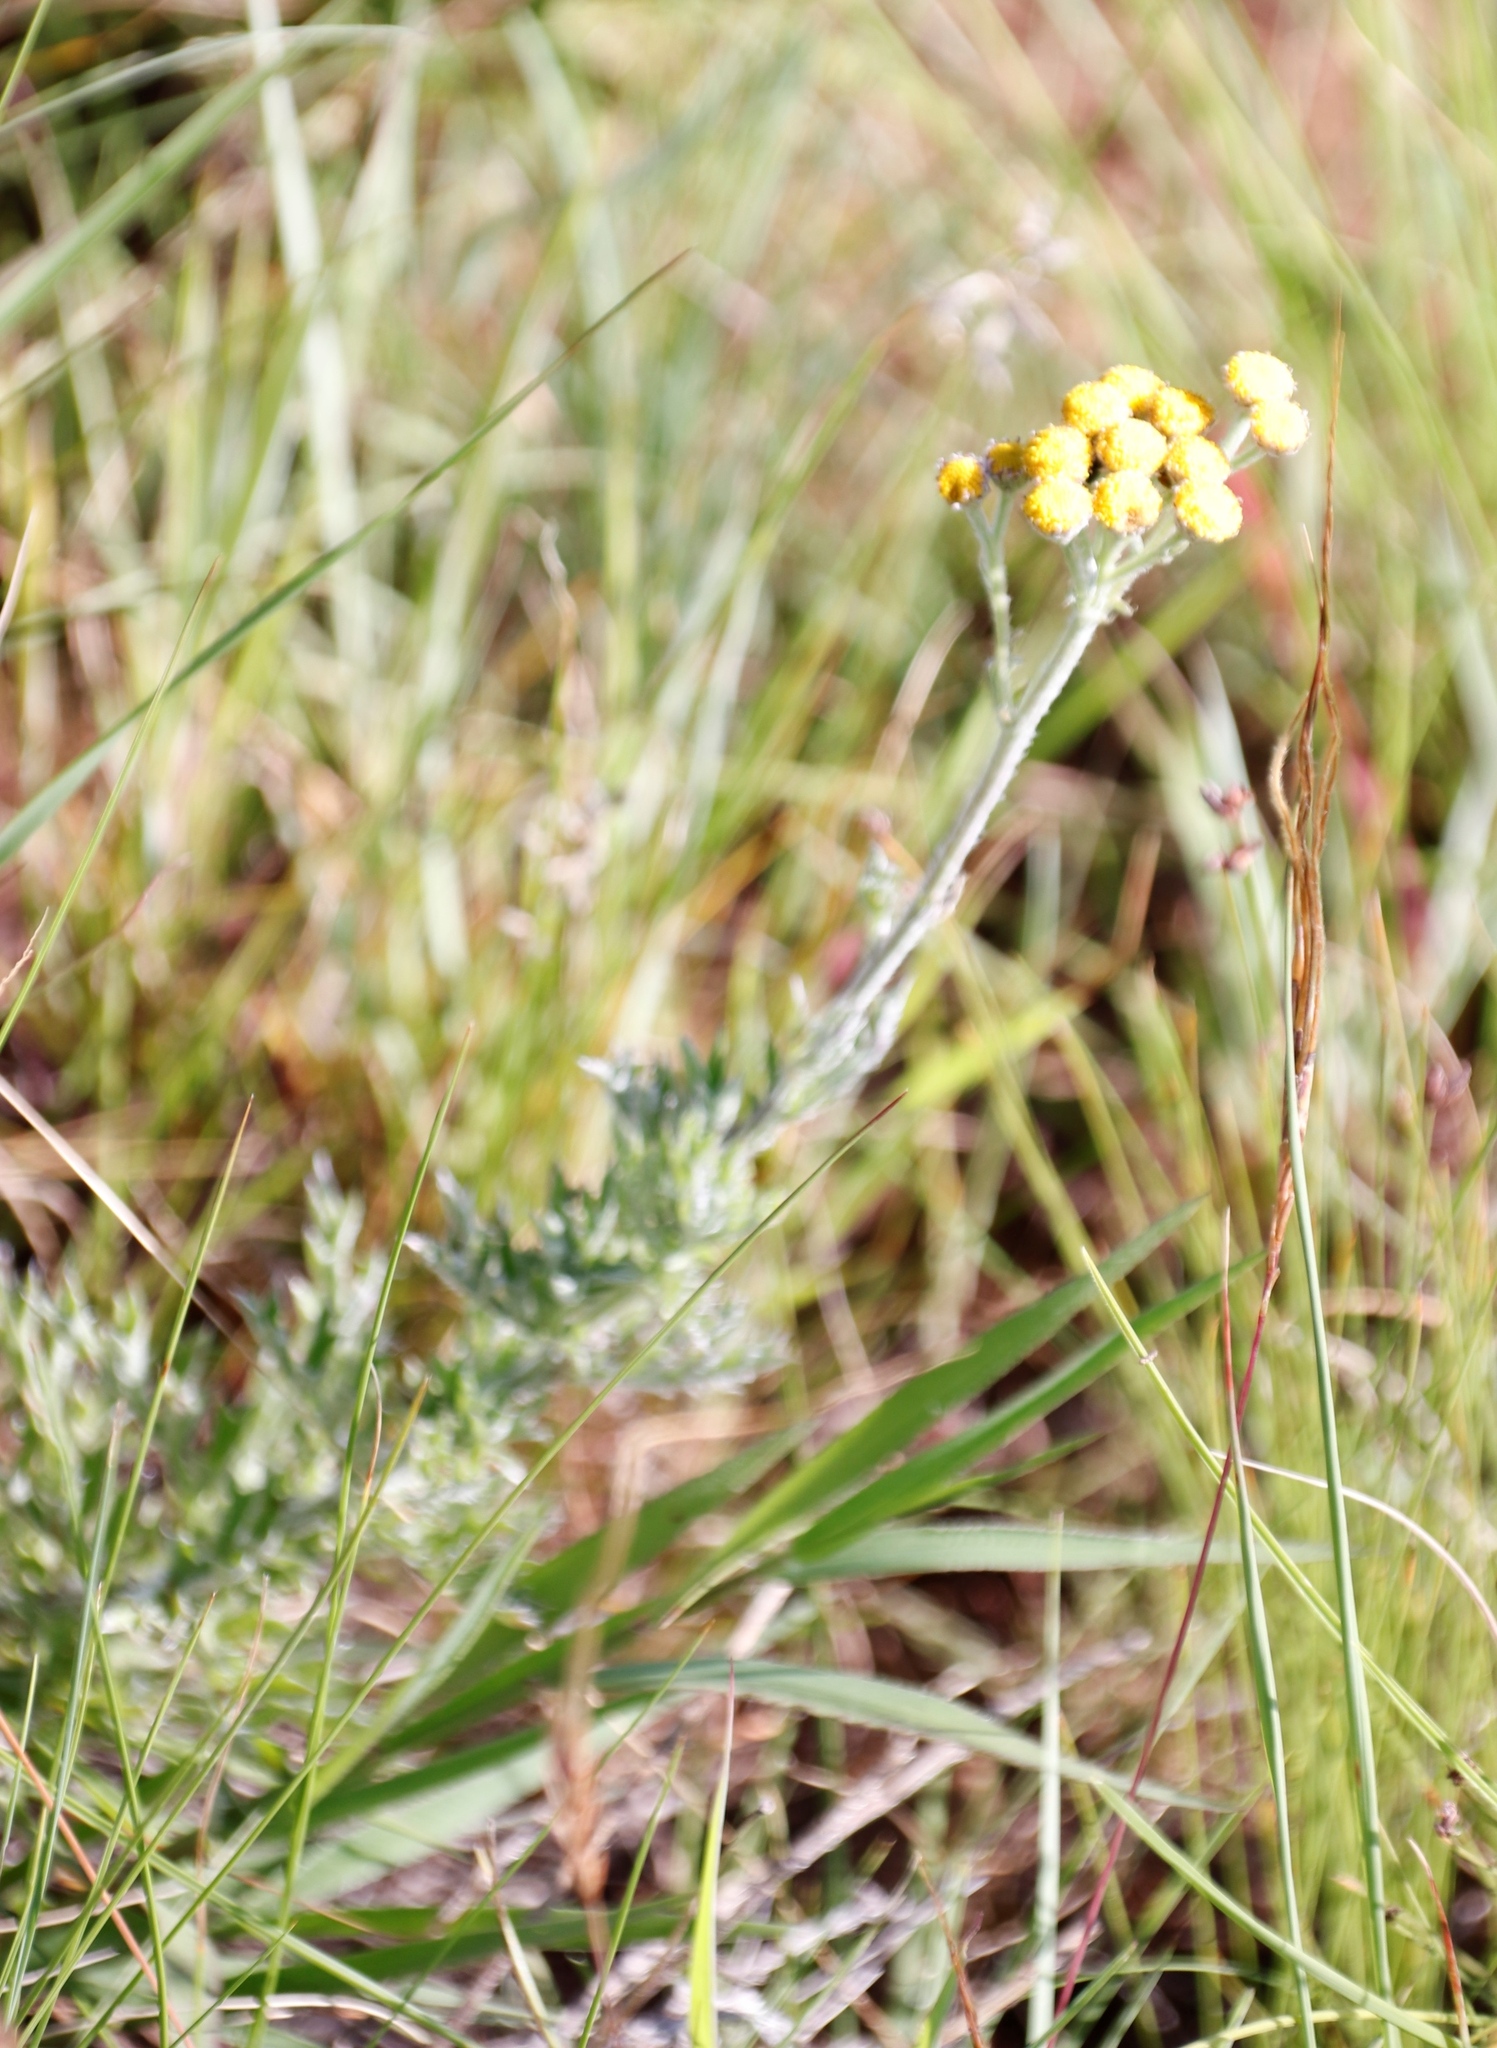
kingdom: Plantae
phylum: Tracheophyta
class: Magnoliopsida
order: Asterales
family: Asteraceae
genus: Schistostephium
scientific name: Schistostephium crataegifolium
